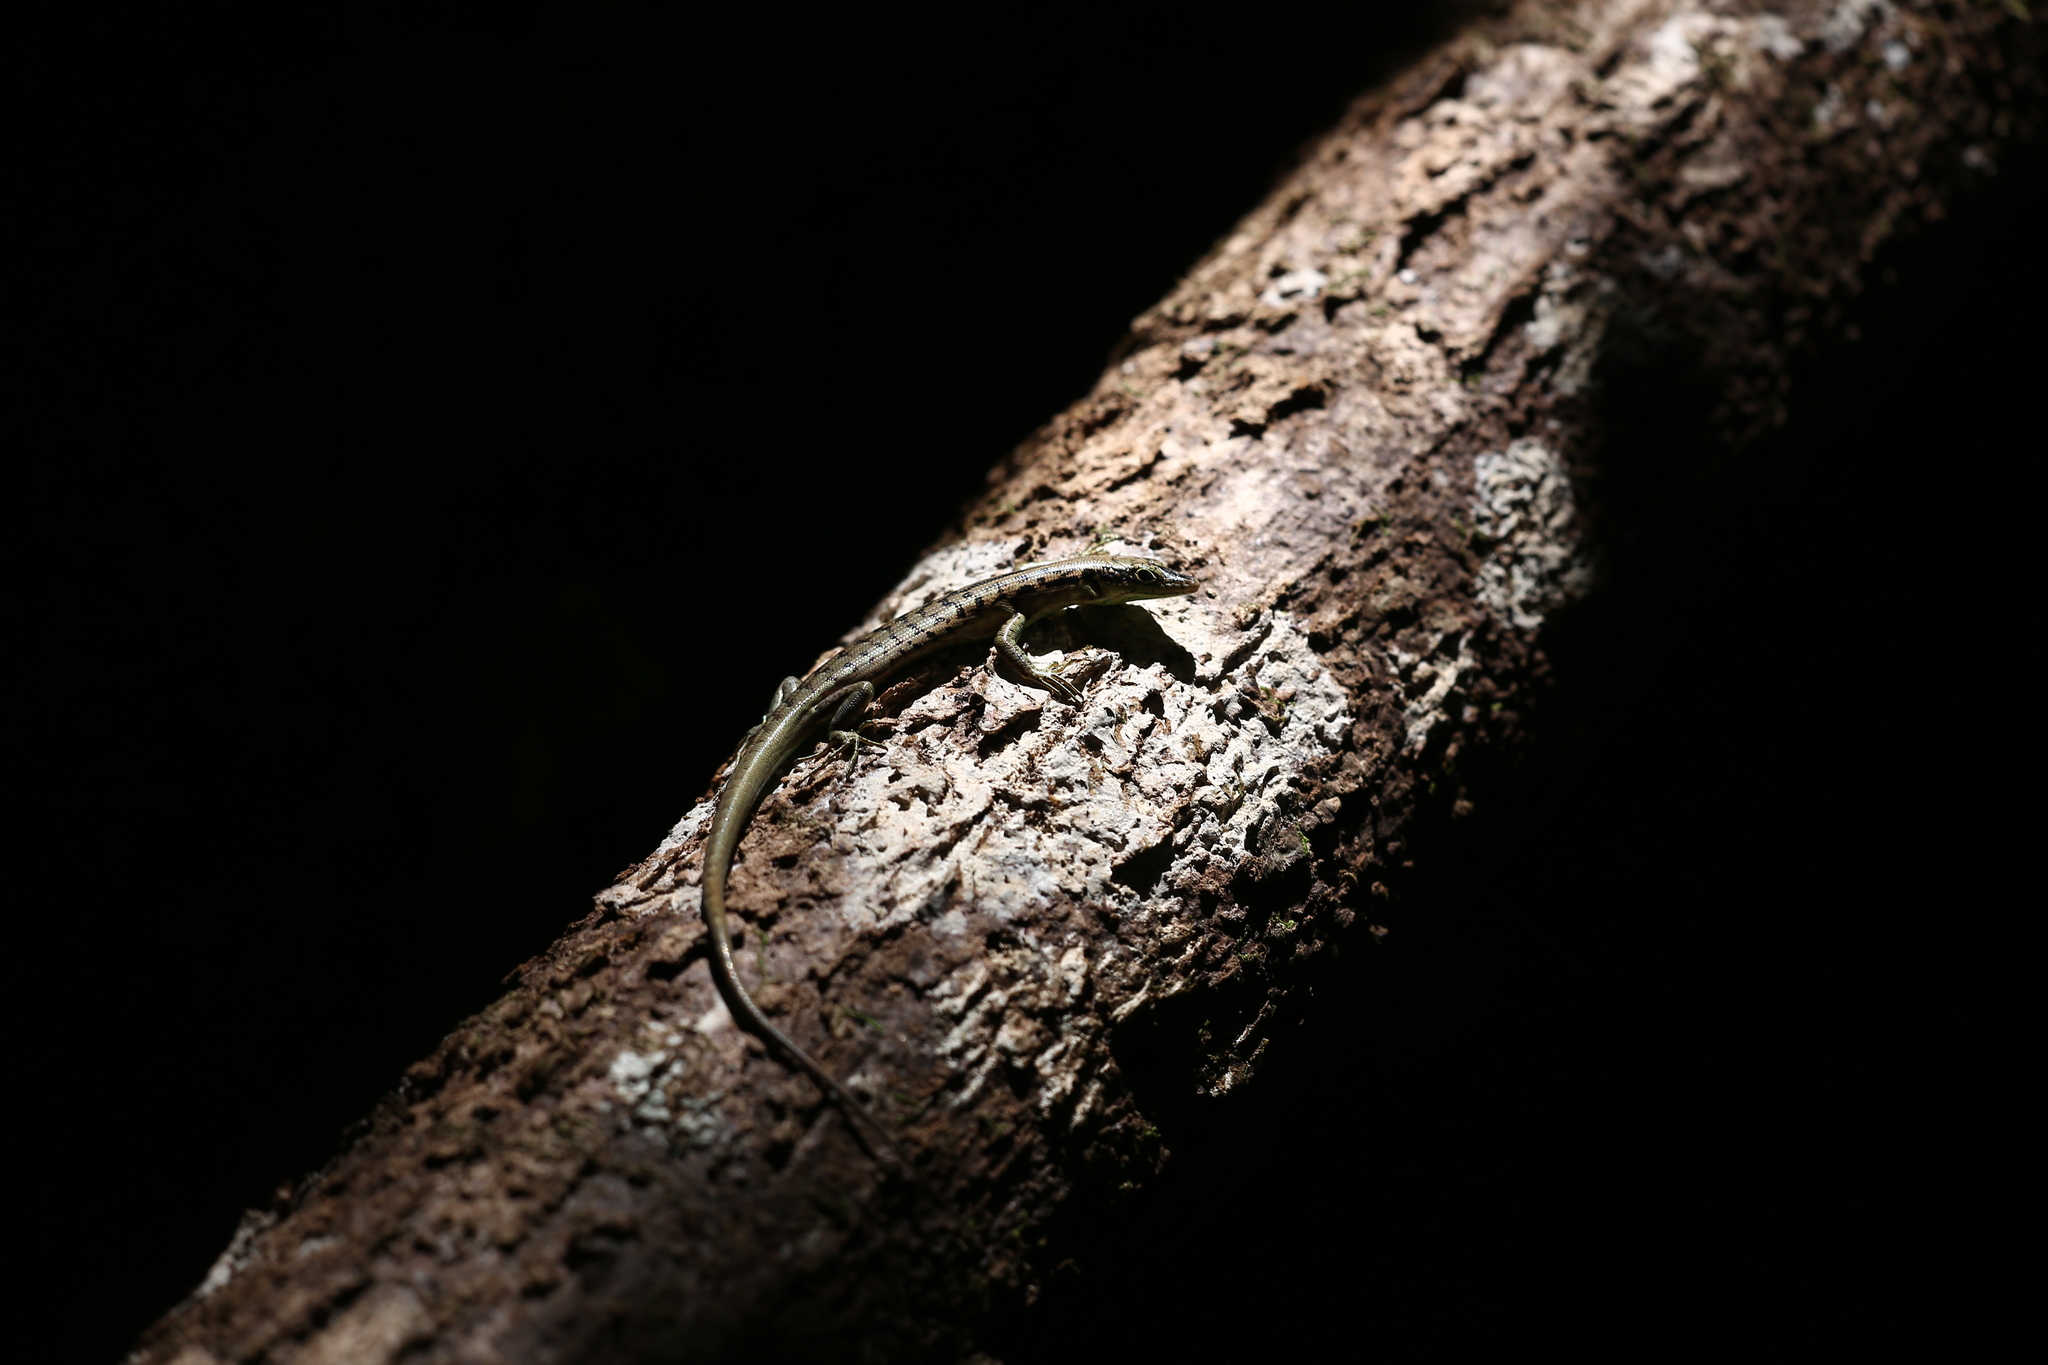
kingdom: Animalia
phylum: Chordata
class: Squamata
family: Scincidae
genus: Epibator
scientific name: Epibator nigrofasciolatus
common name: Green-bellied tree skink
